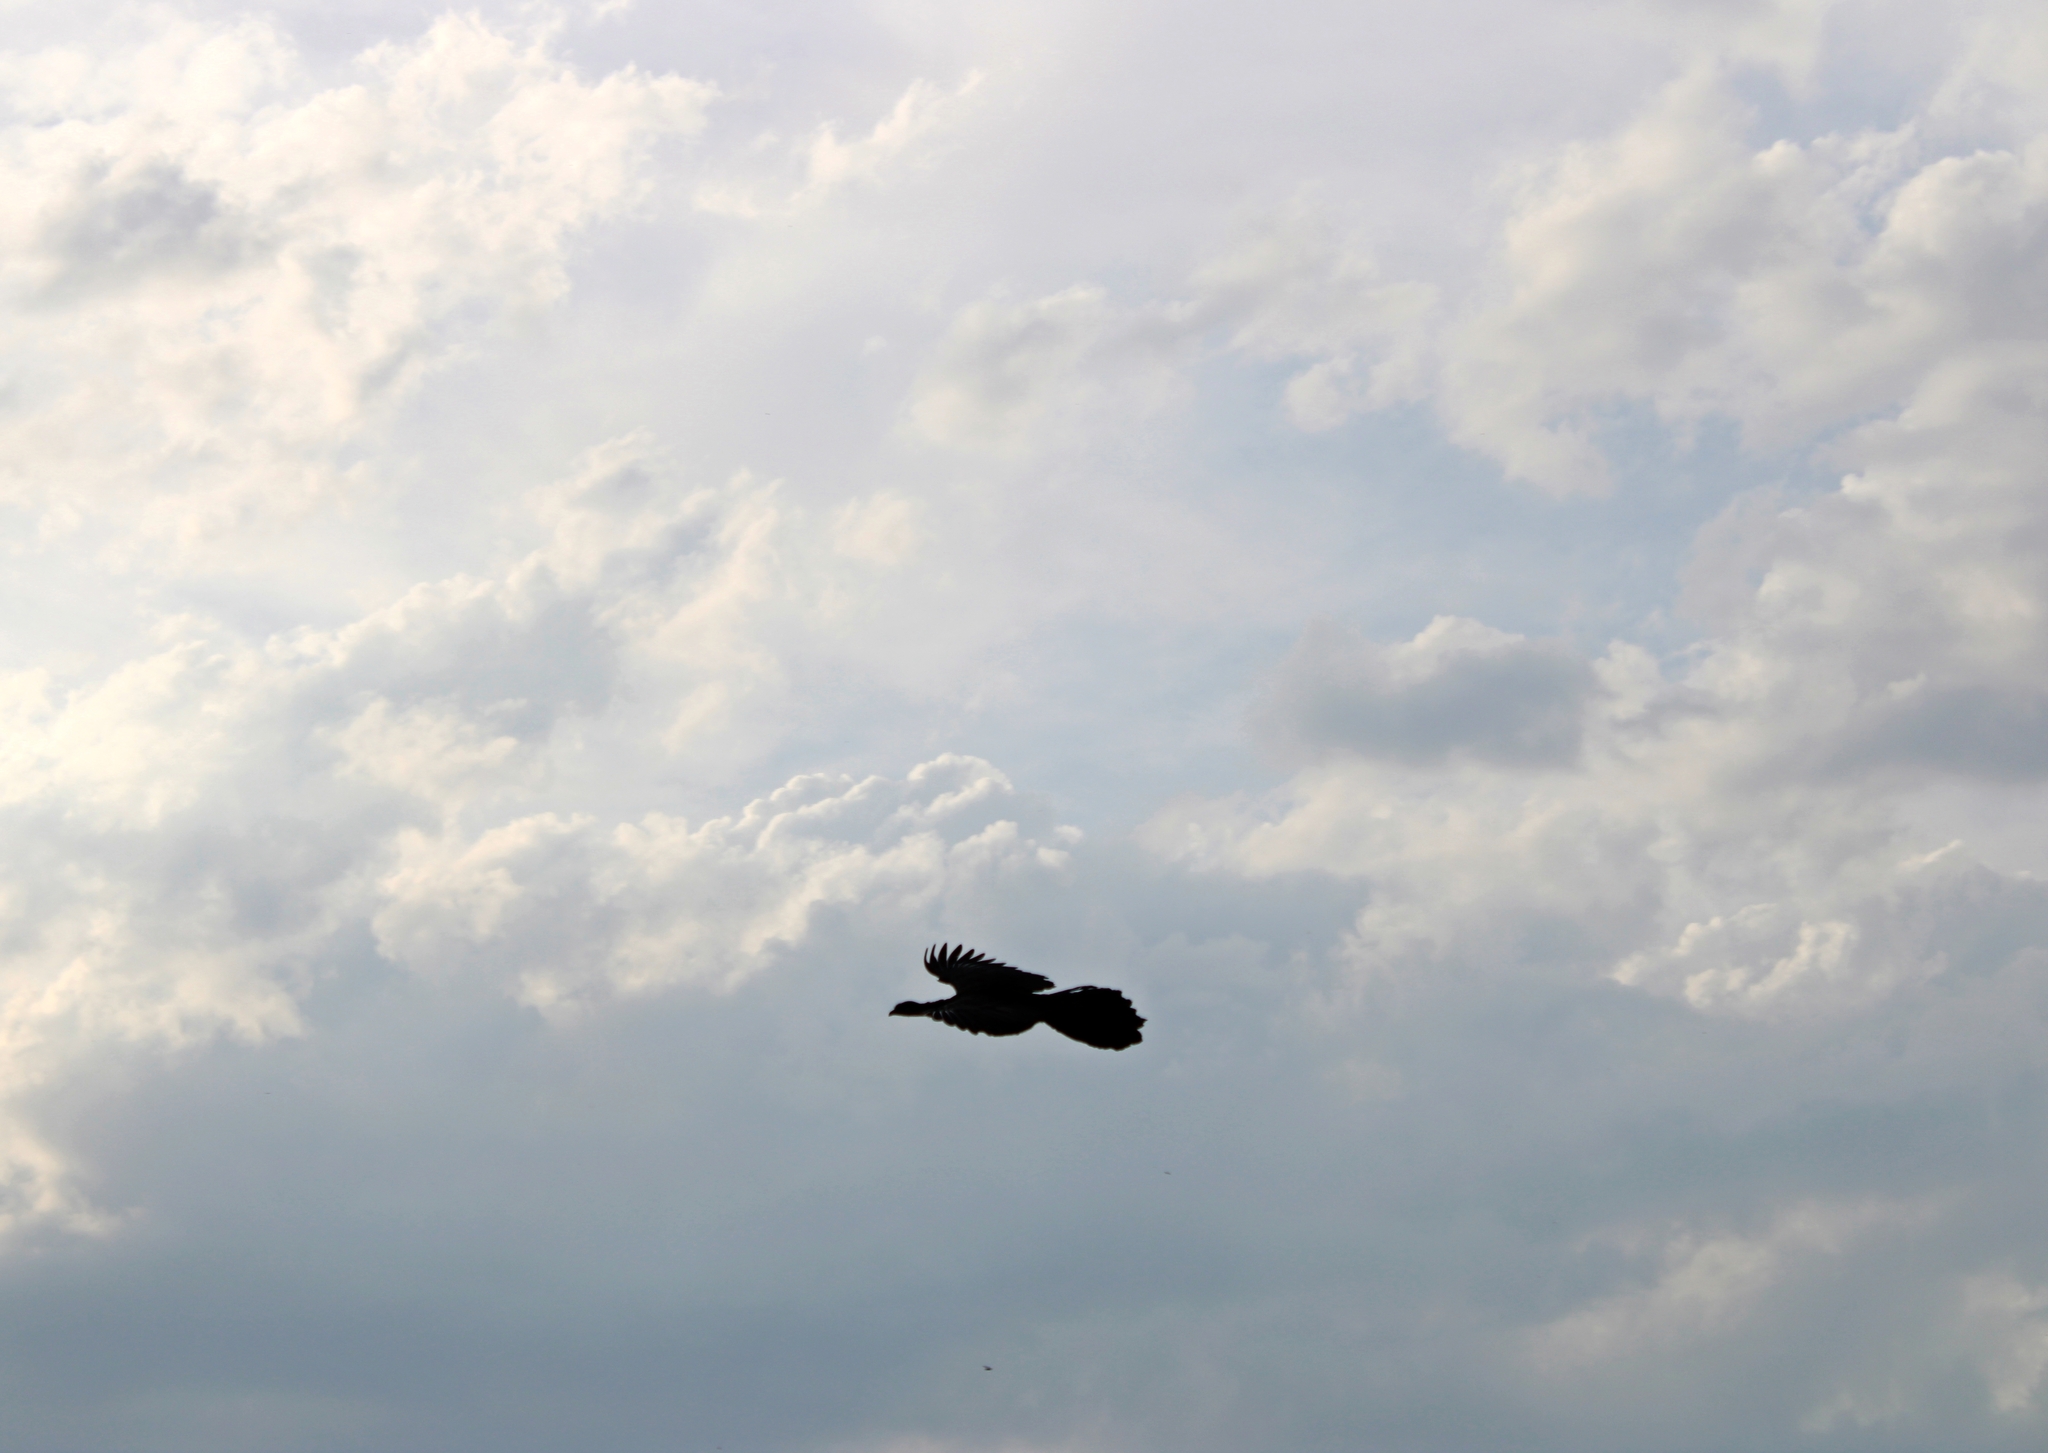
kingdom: Animalia
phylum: Chordata
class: Aves
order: Galliformes
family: Cracidae
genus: Penelope
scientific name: Penelope obscura
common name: Dusky-legged guan
